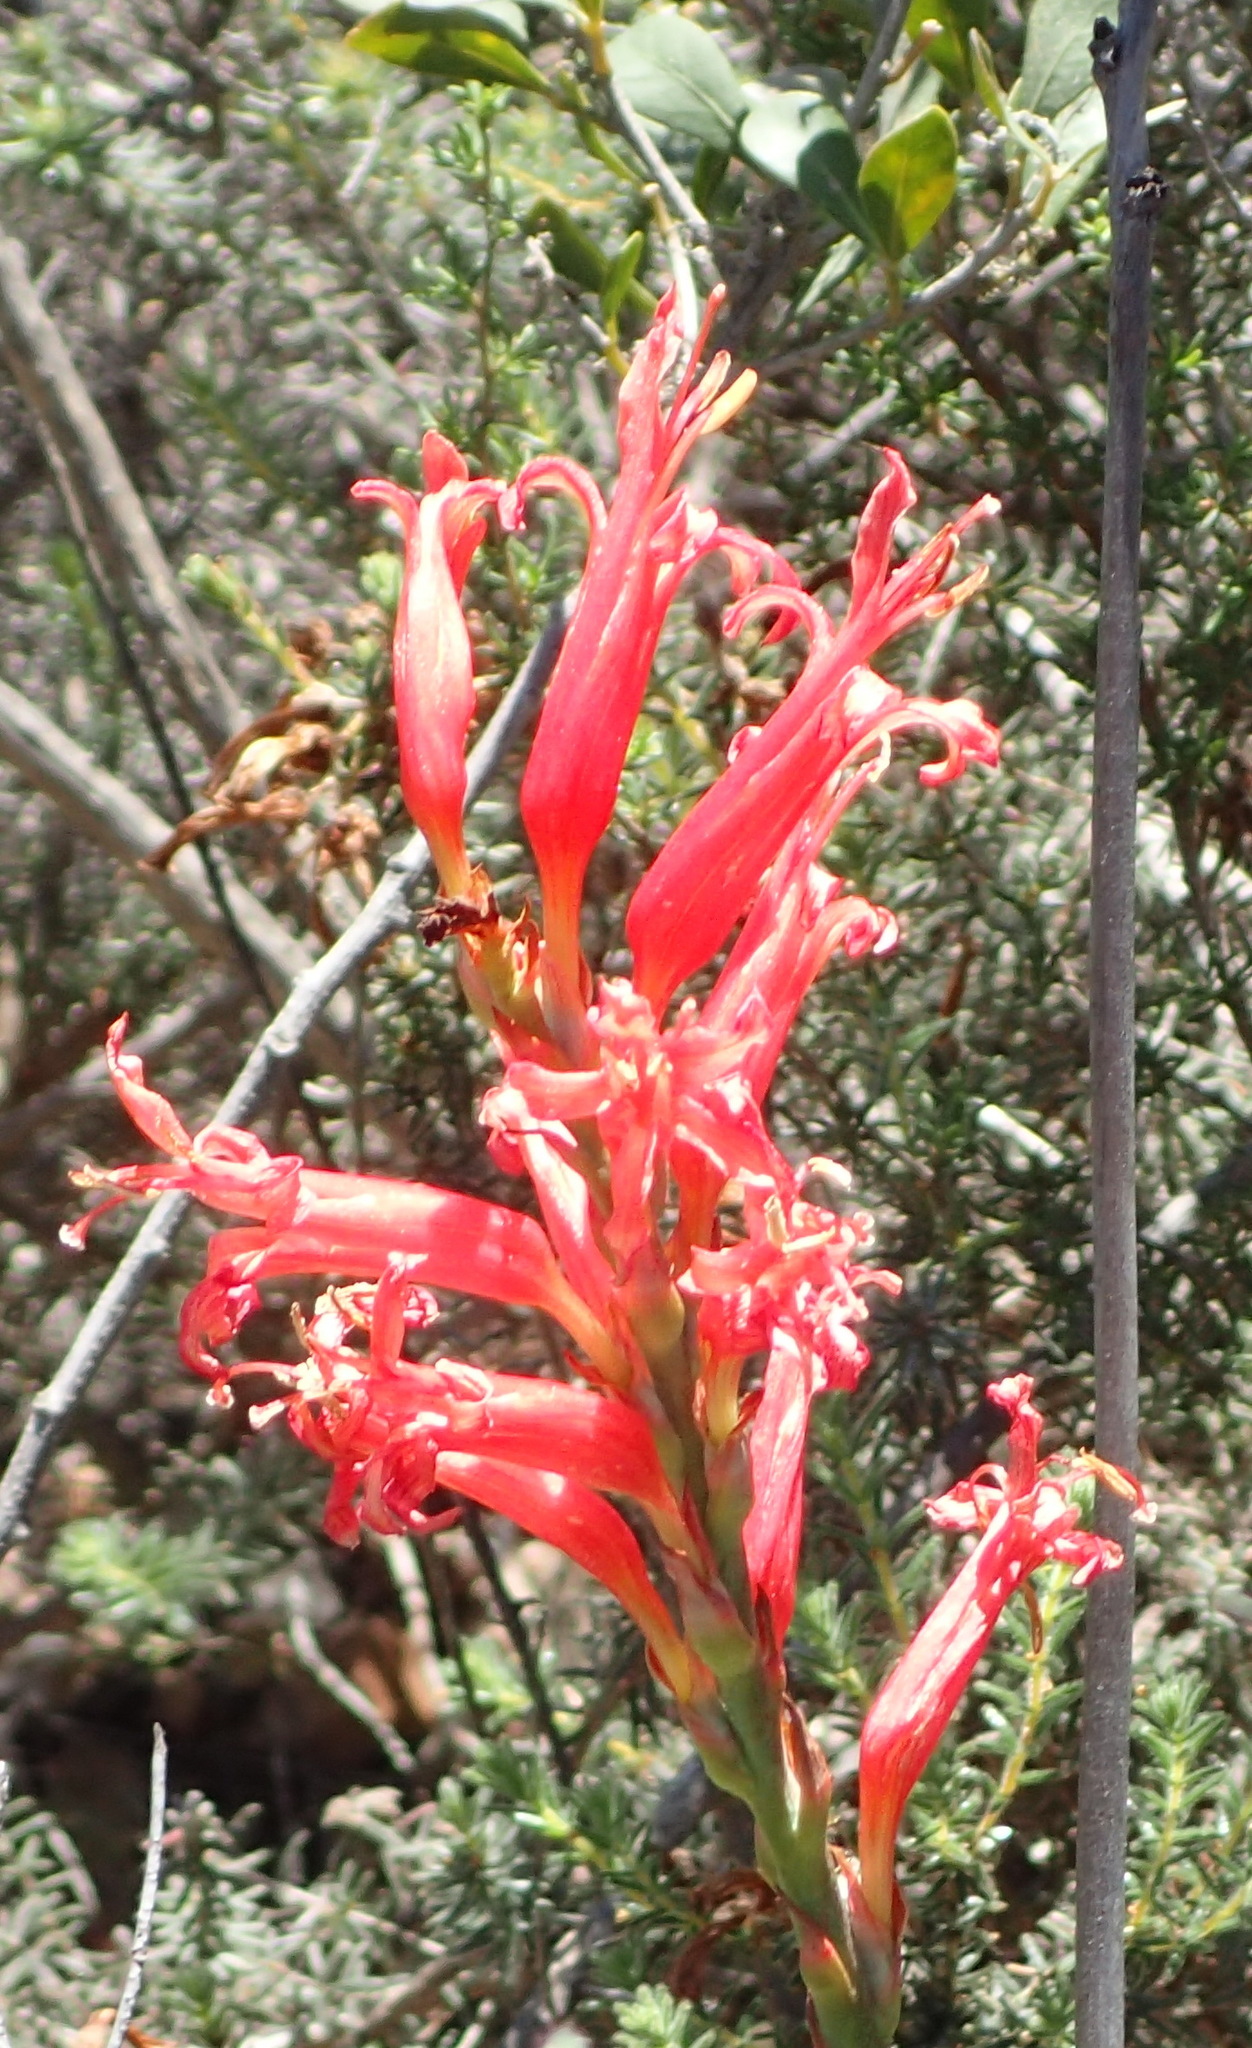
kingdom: Plantae
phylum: Tracheophyta
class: Liliopsida
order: Asparagales
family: Iridaceae
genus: Tritoniopsis
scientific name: Tritoniopsis antholyza
